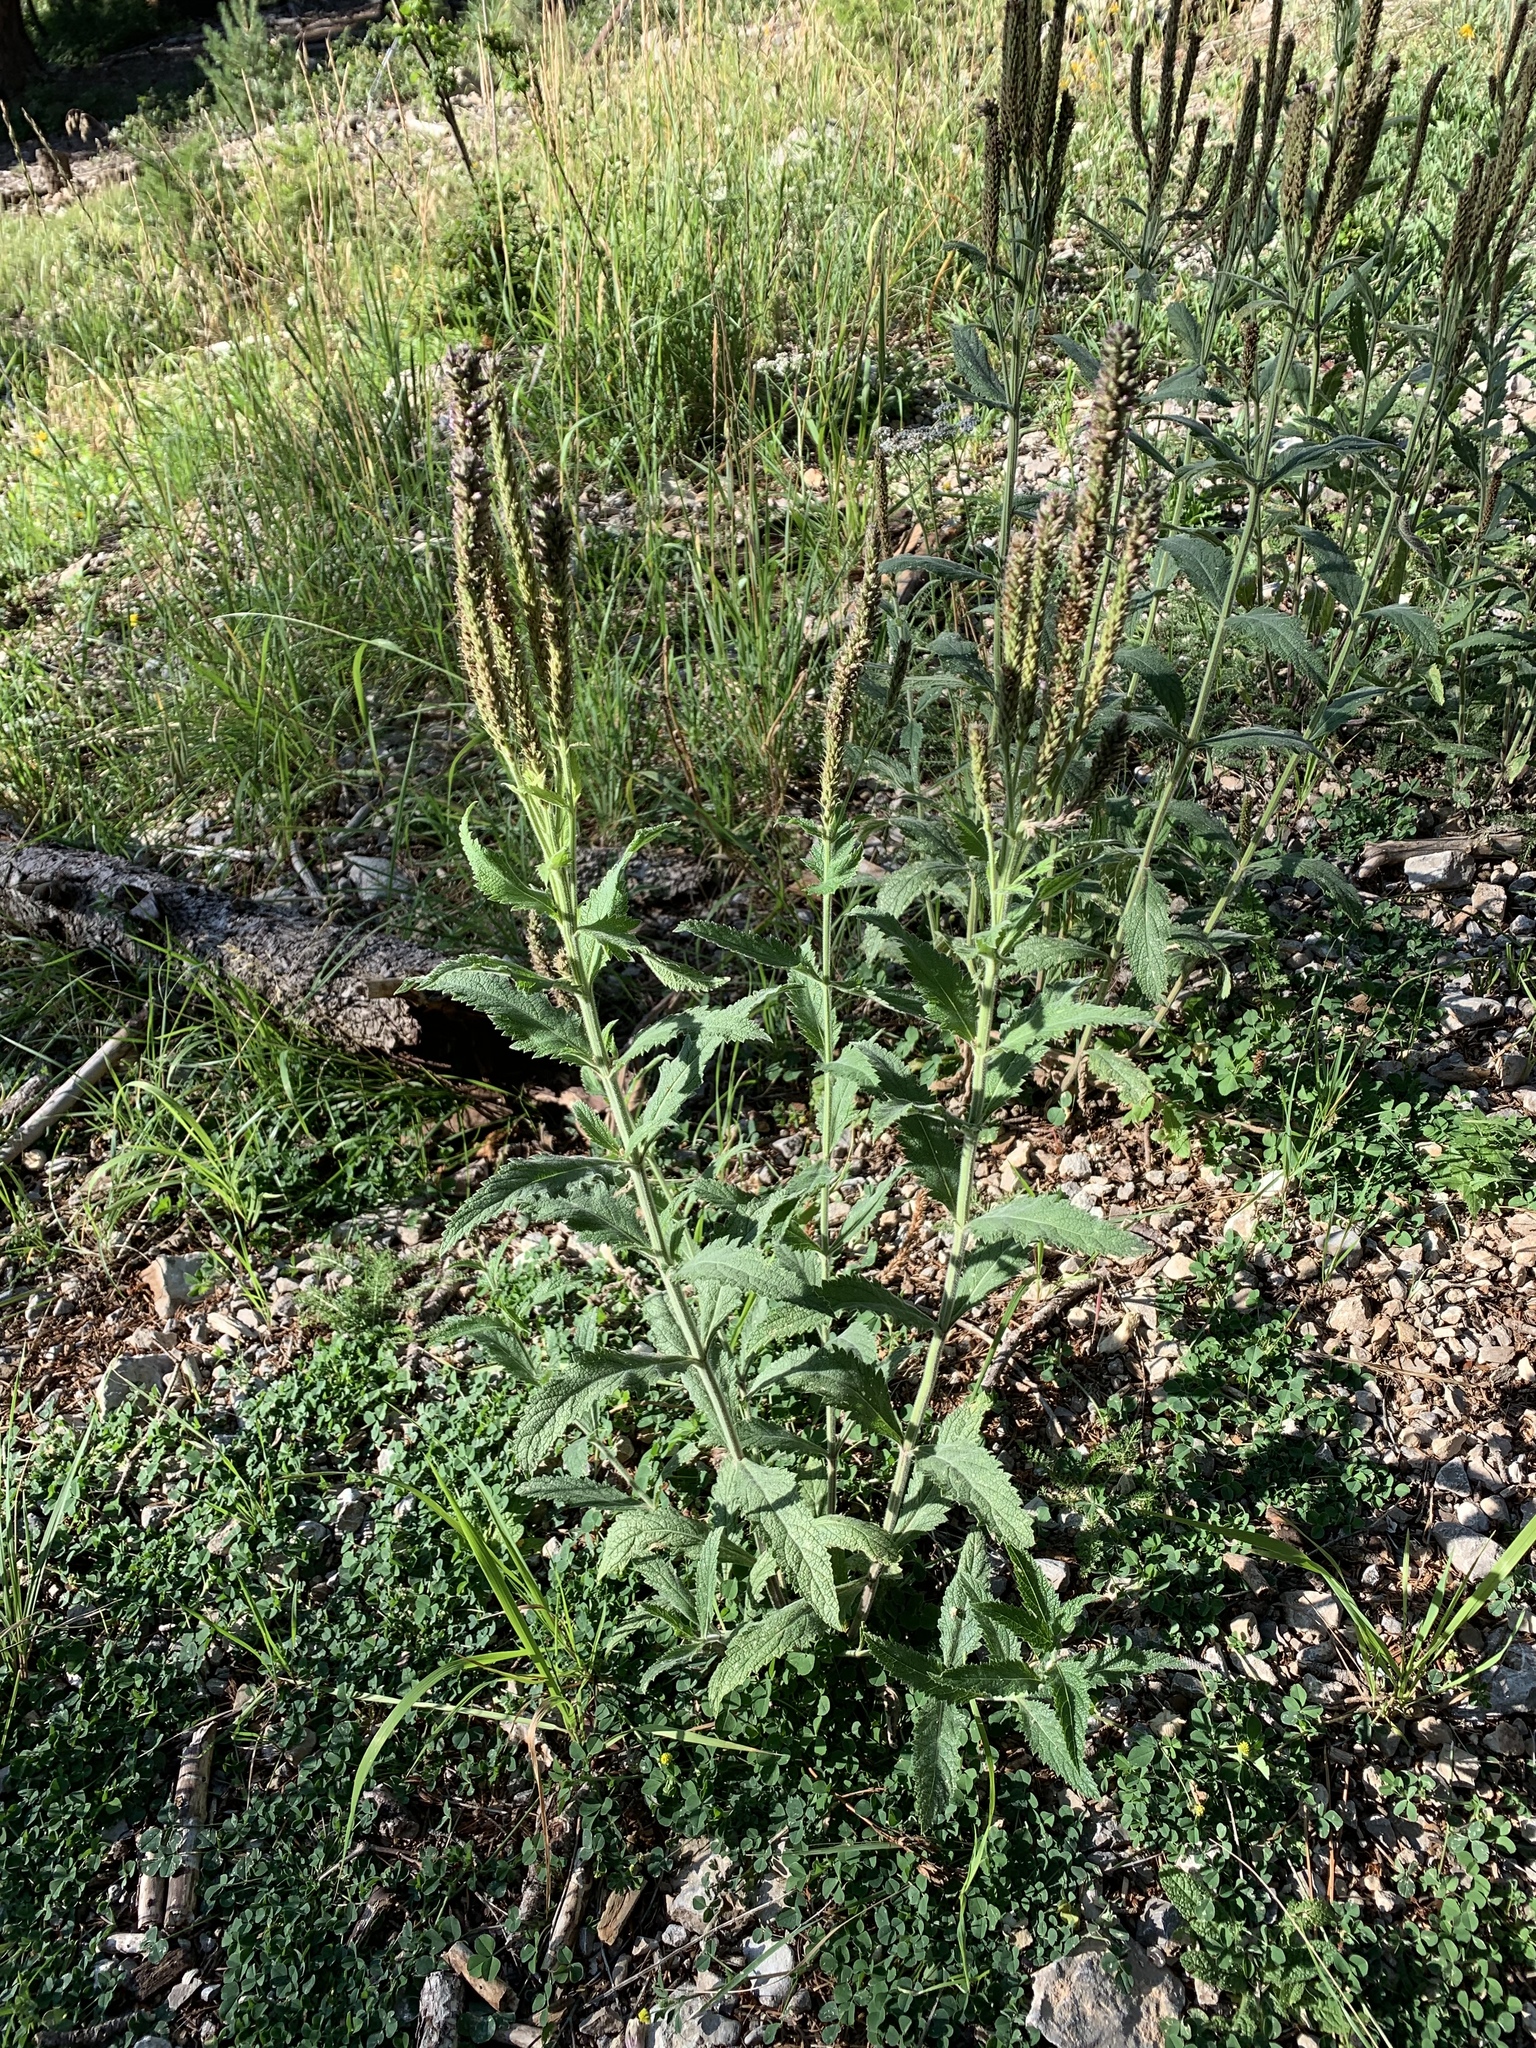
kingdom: Plantae
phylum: Tracheophyta
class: Magnoliopsida
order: Lamiales
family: Verbenaceae
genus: Verbena
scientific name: Verbena macdougalii
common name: New mexico vervain
